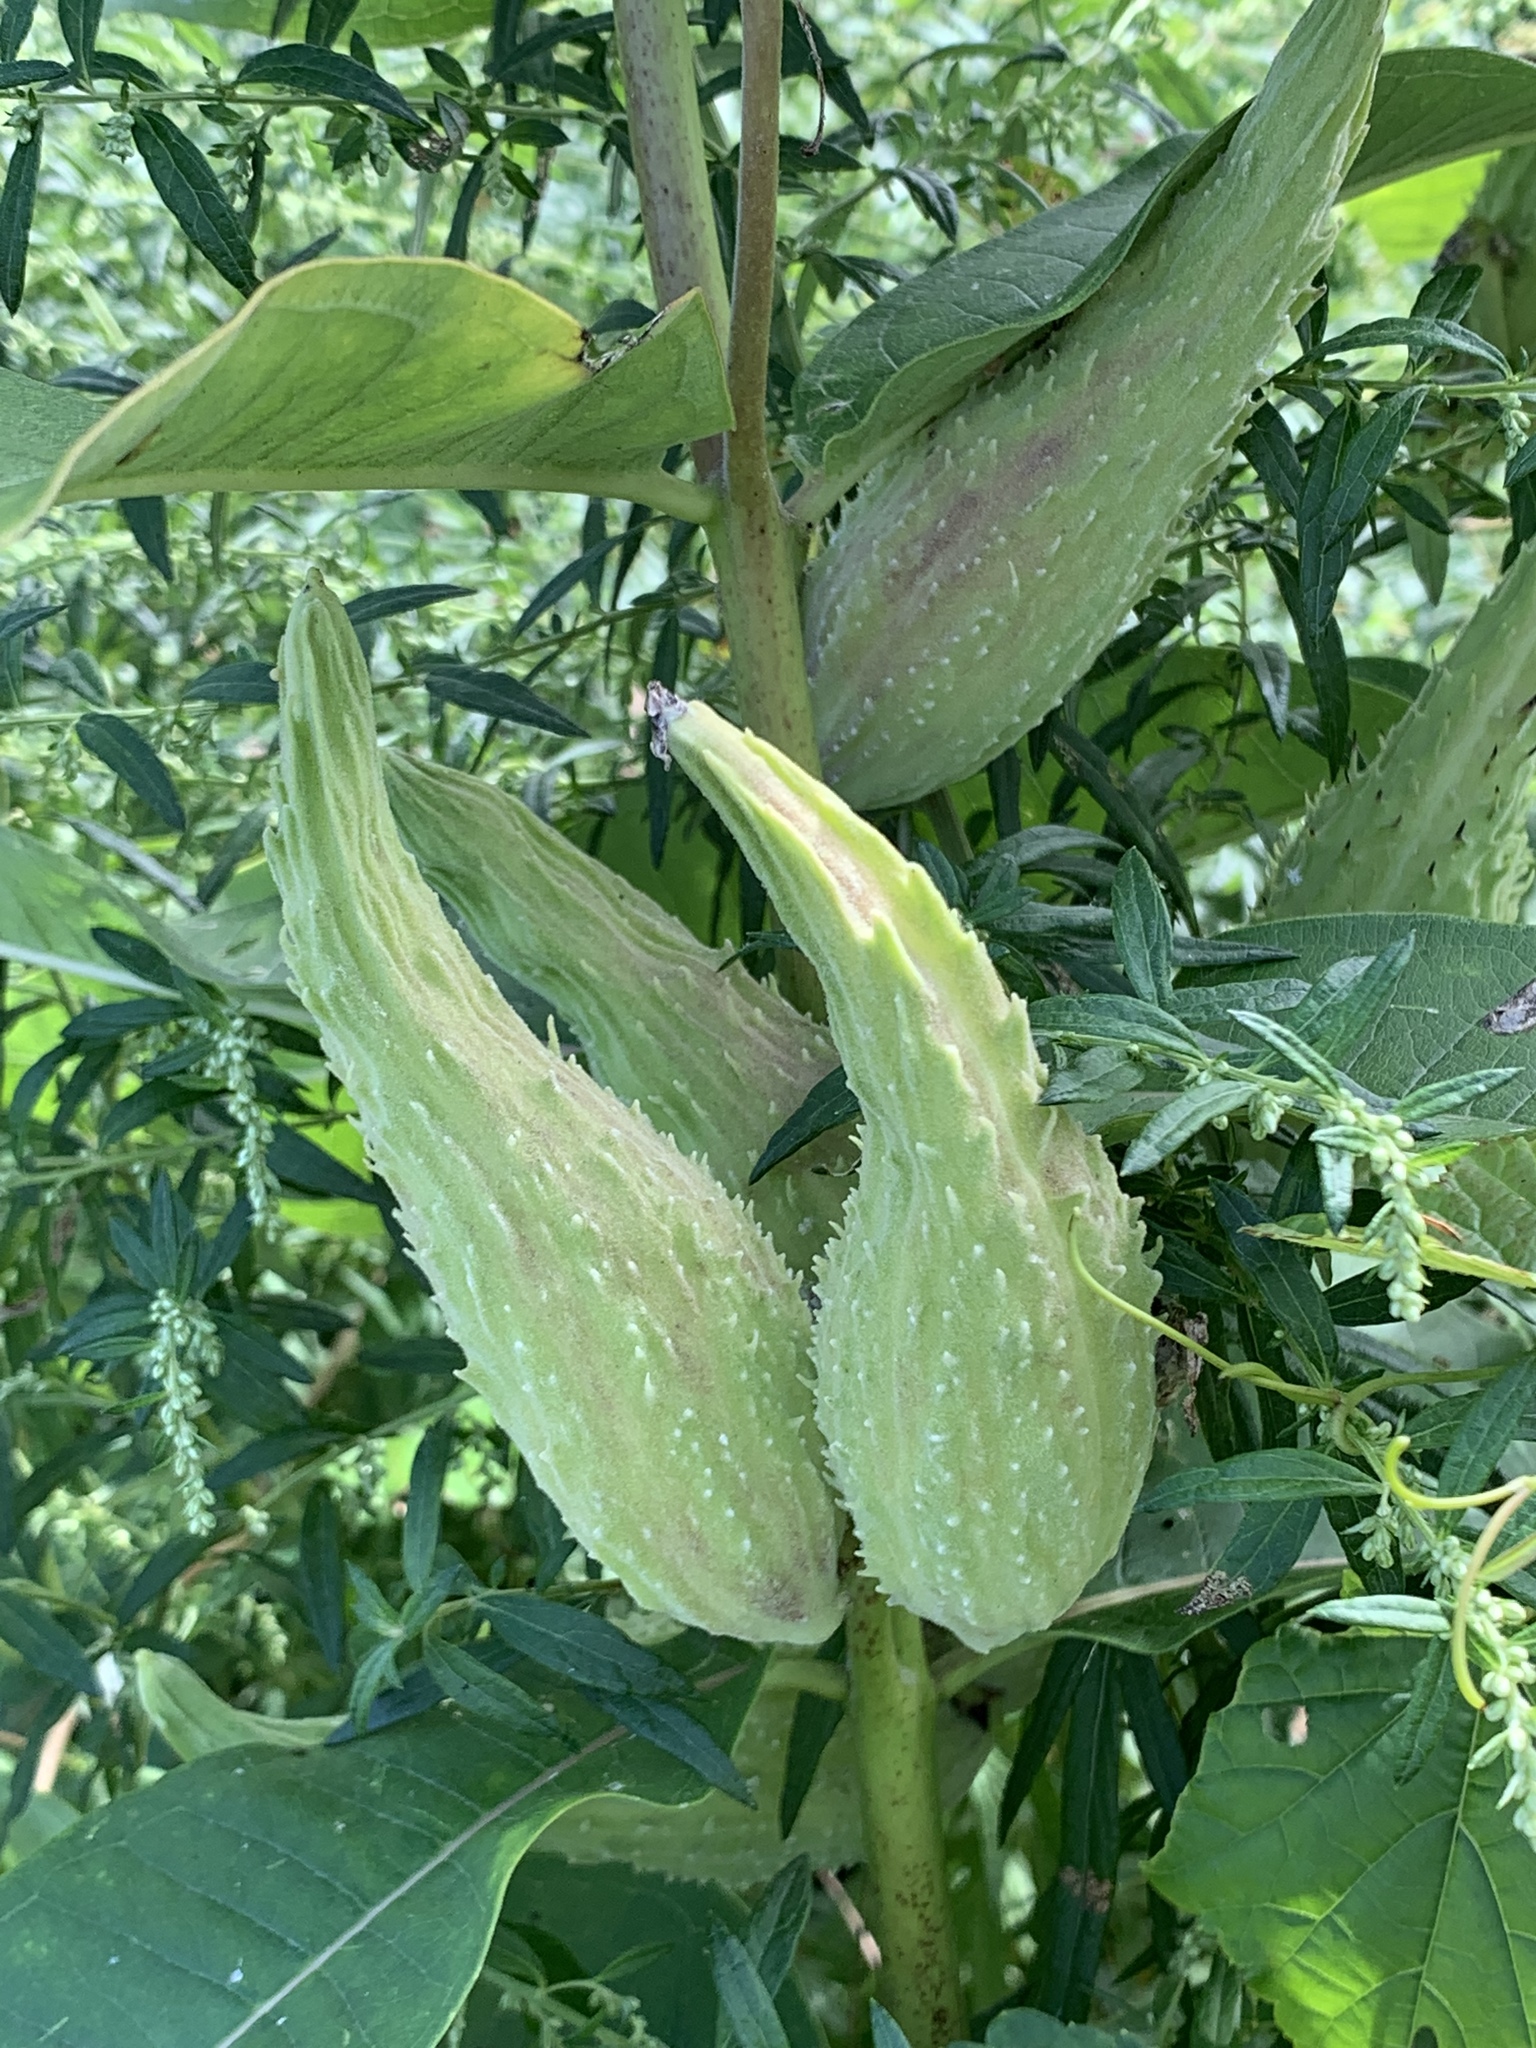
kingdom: Plantae
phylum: Tracheophyta
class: Magnoliopsida
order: Gentianales
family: Apocynaceae
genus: Asclepias
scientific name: Asclepias syriaca
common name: Common milkweed
